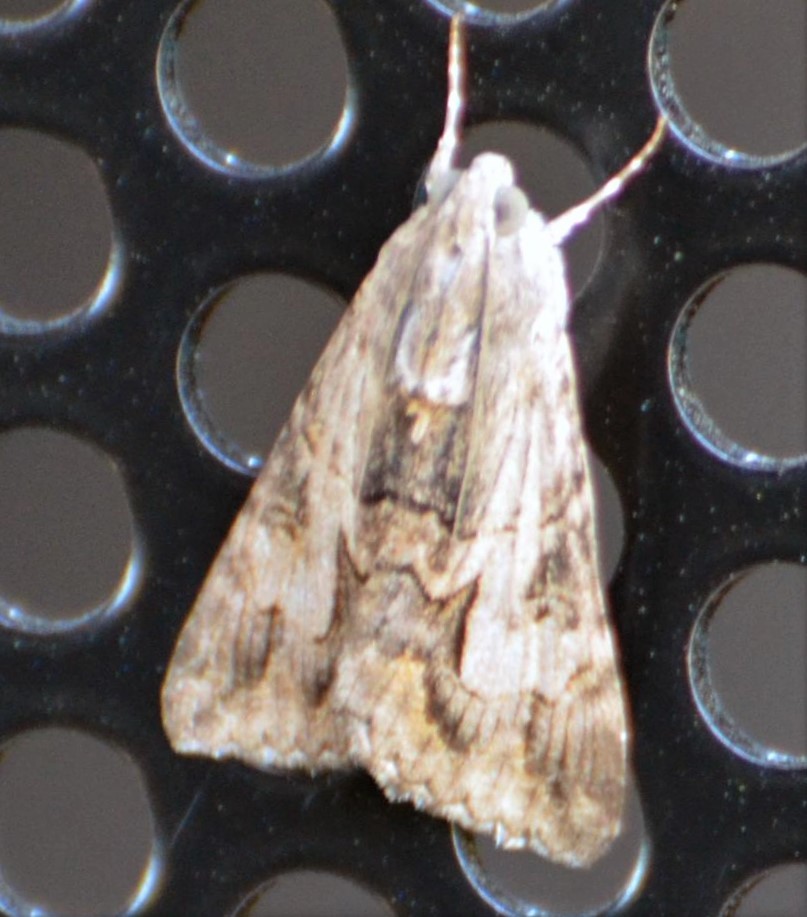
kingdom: Animalia
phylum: Arthropoda
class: Insecta
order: Lepidoptera
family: Erebidae
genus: Melipotis
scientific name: Melipotis jucunda
